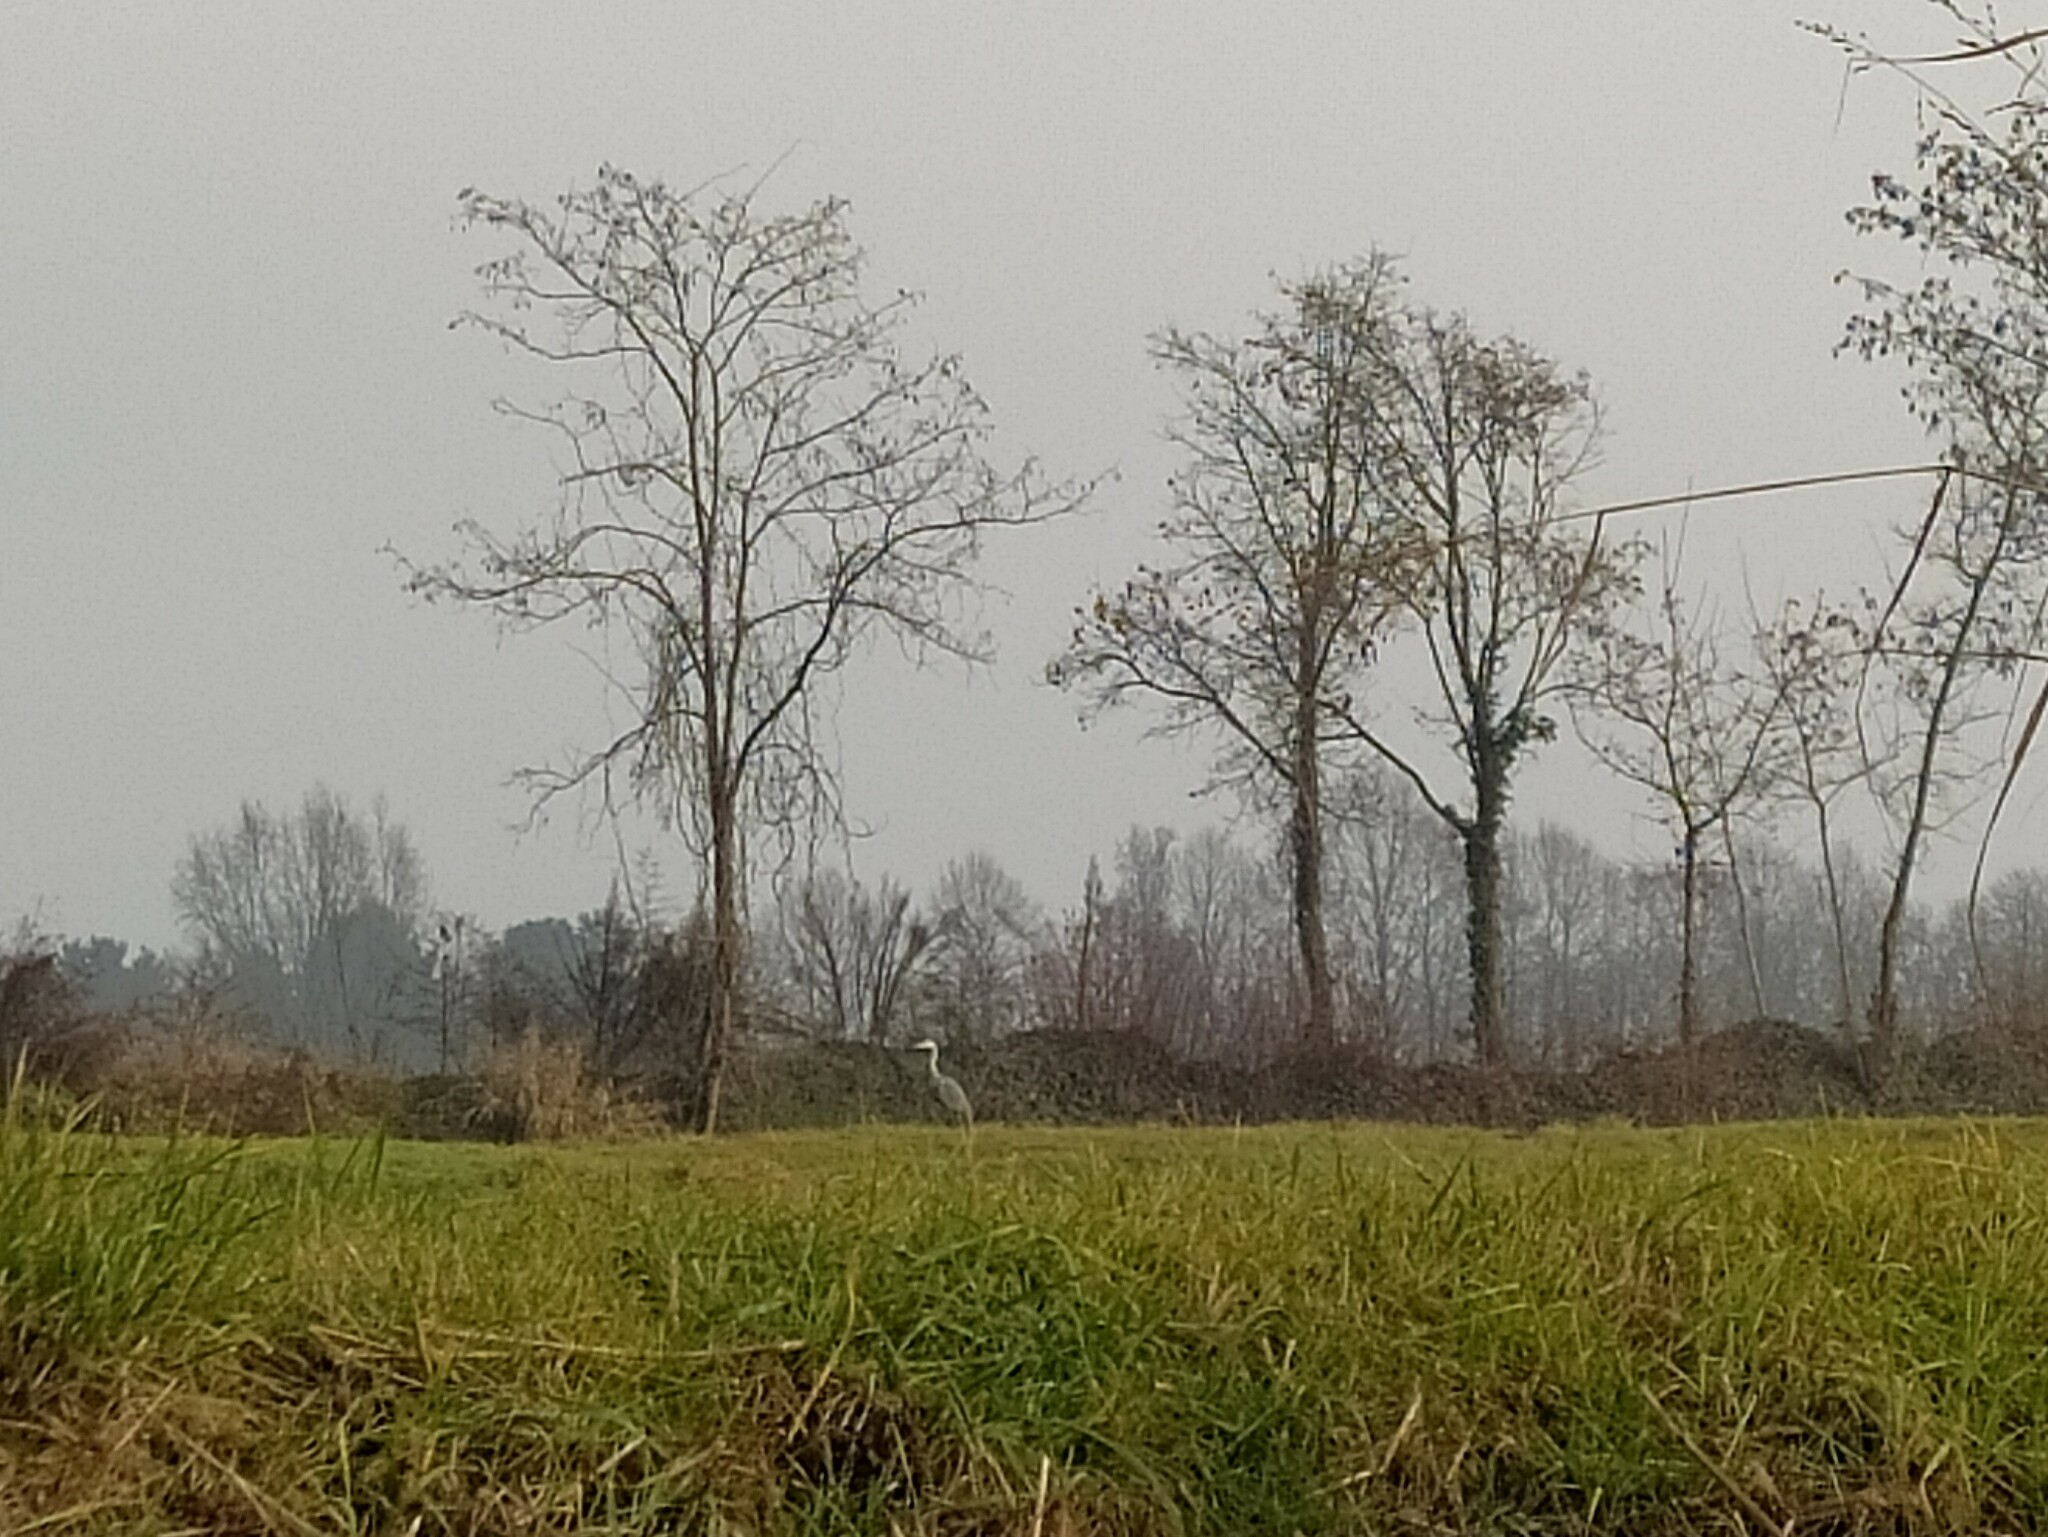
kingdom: Animalia
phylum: Chordata
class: Aves
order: Pelecaniformes
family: Ardeidae
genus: Ardea
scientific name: Ardea cinerea
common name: Grey heron
